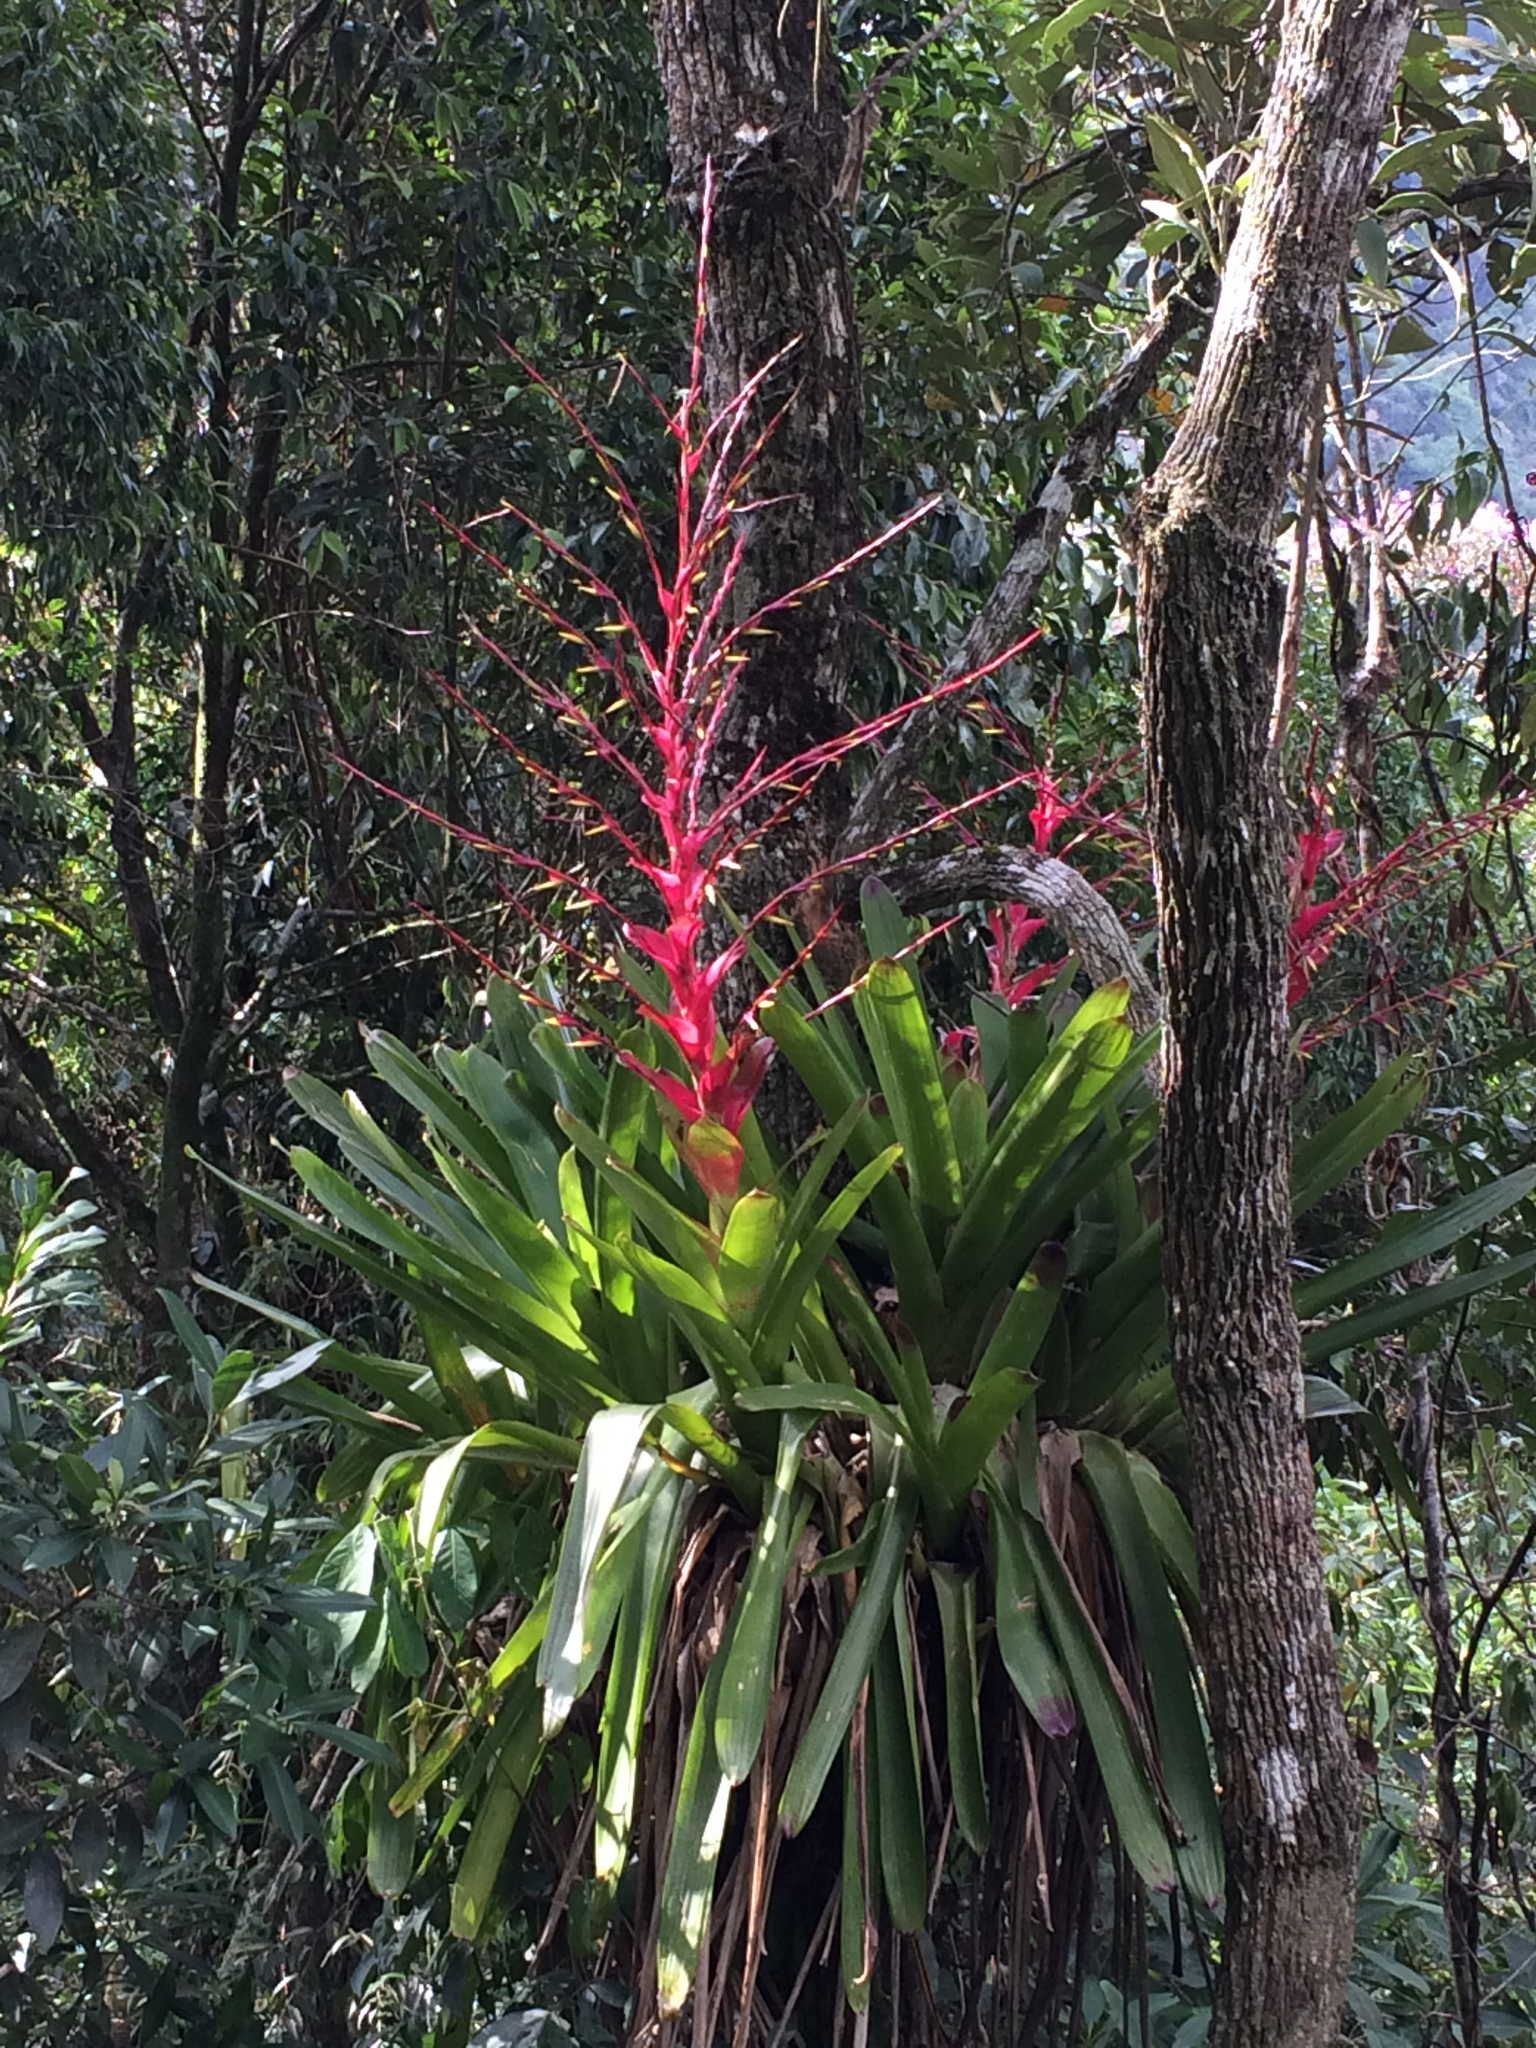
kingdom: Plantae
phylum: Tracheophyta
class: Liliopsida
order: Poales
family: Bromeliaceae
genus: Vriesea
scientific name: Vriesea philippocoburgi
